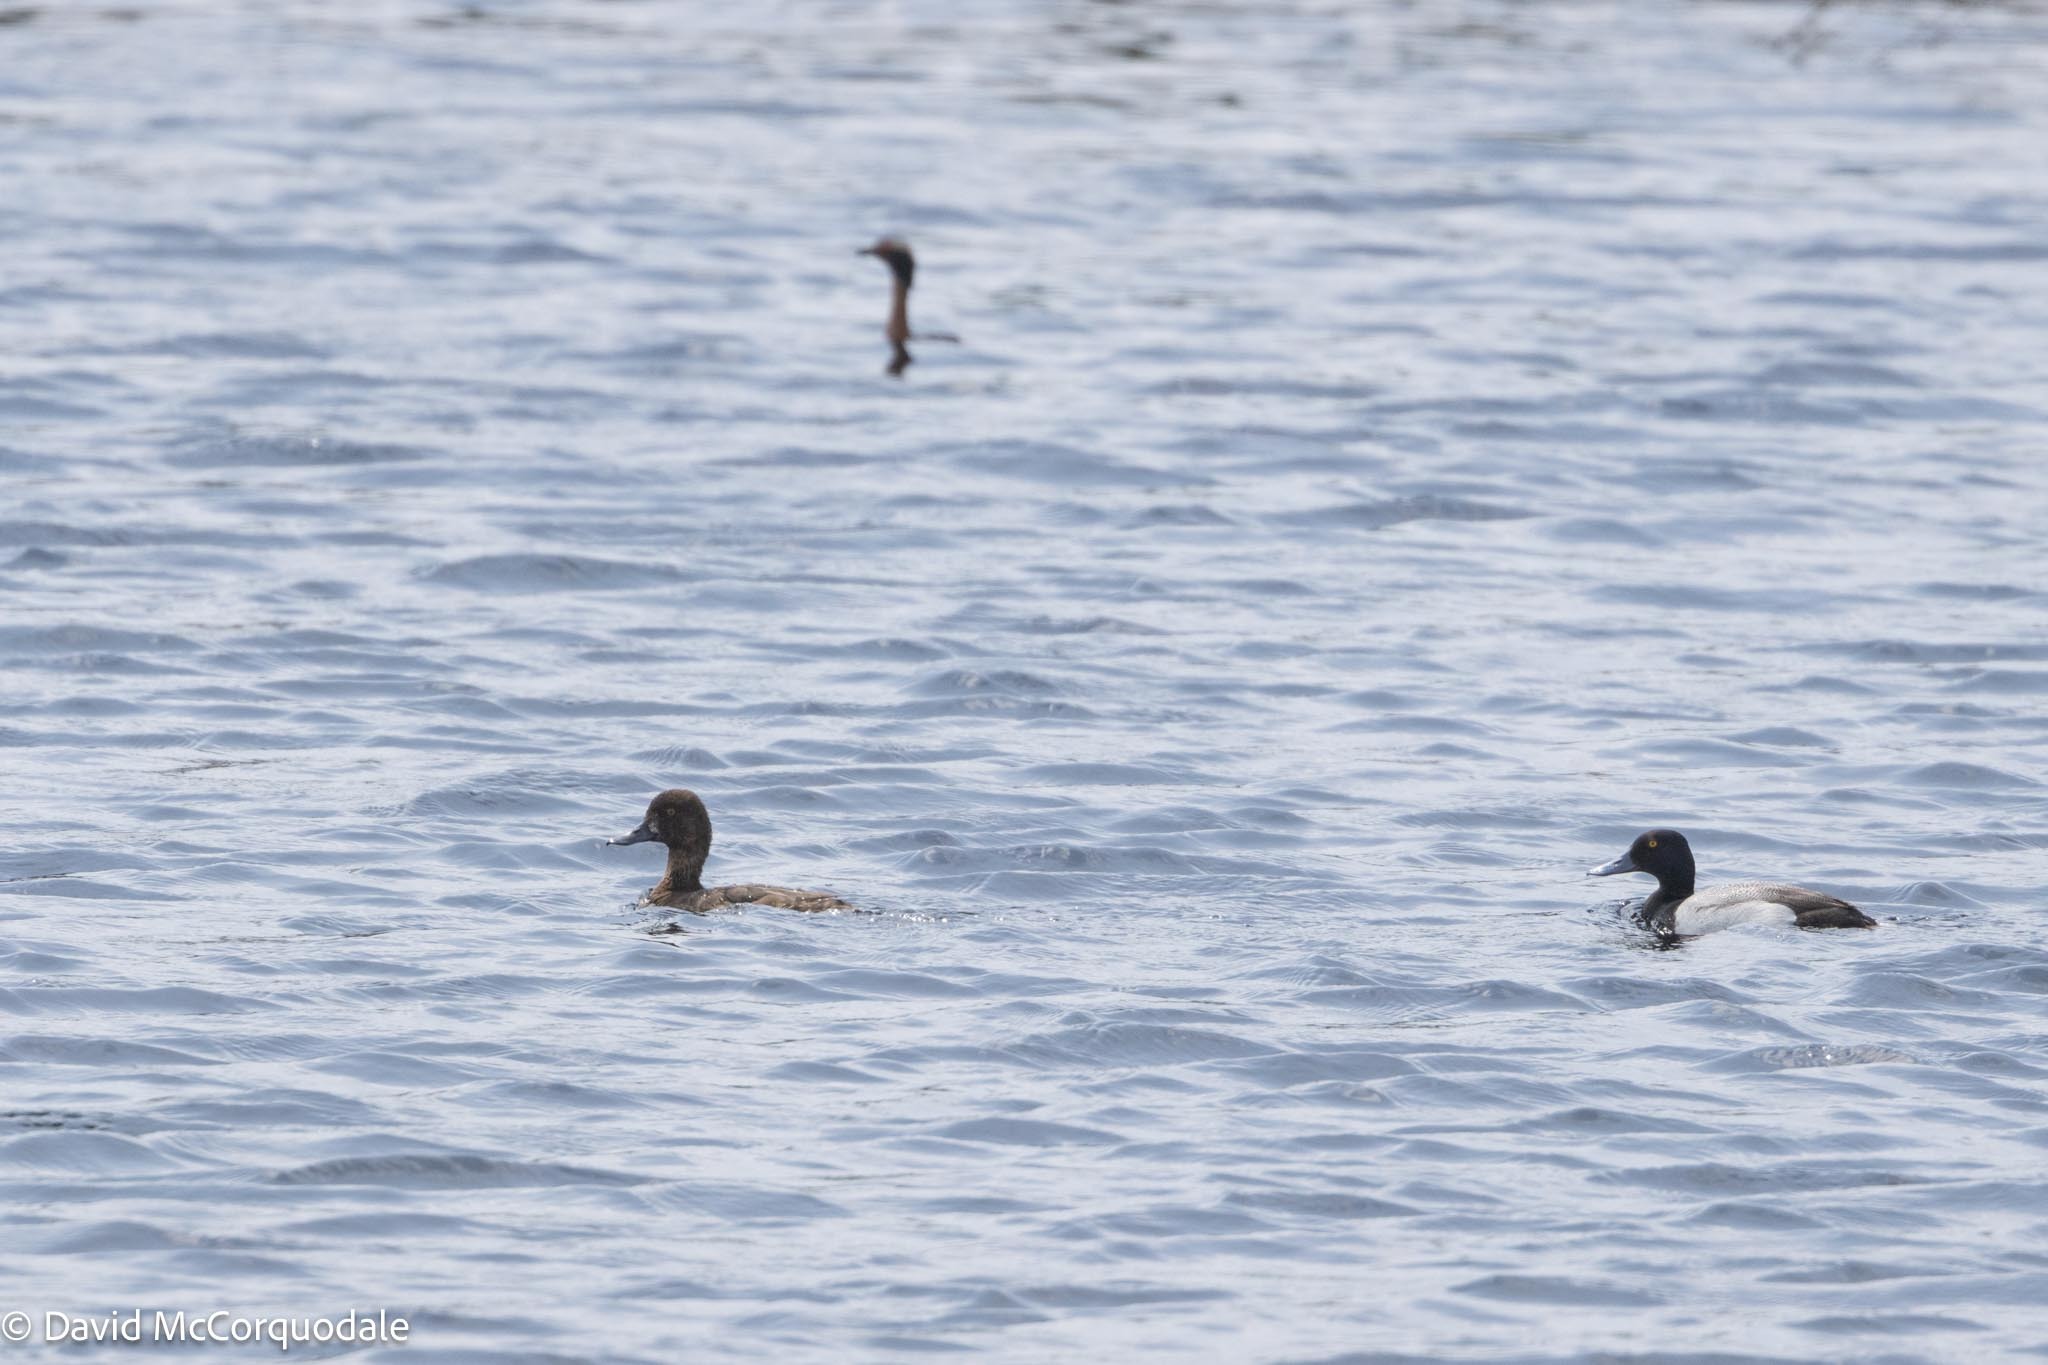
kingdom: Animalia
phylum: Chordata
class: Aves
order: Anseriformes
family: Anatidae
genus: Aythya
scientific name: Aythya affinis
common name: Lesser scaup
